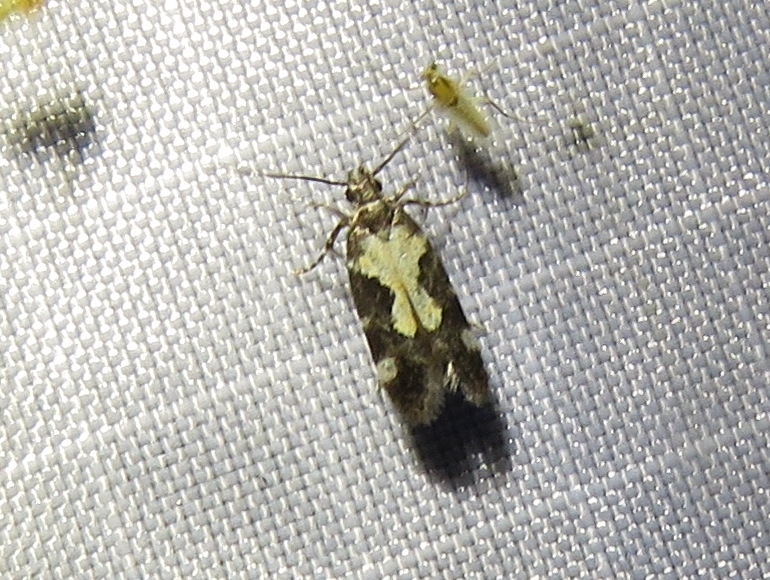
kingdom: Animalia
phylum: Arthropoda
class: Insecta
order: Lepidoptera
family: Gelechiidae
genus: Stegasta
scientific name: Stegasta bosqueella
